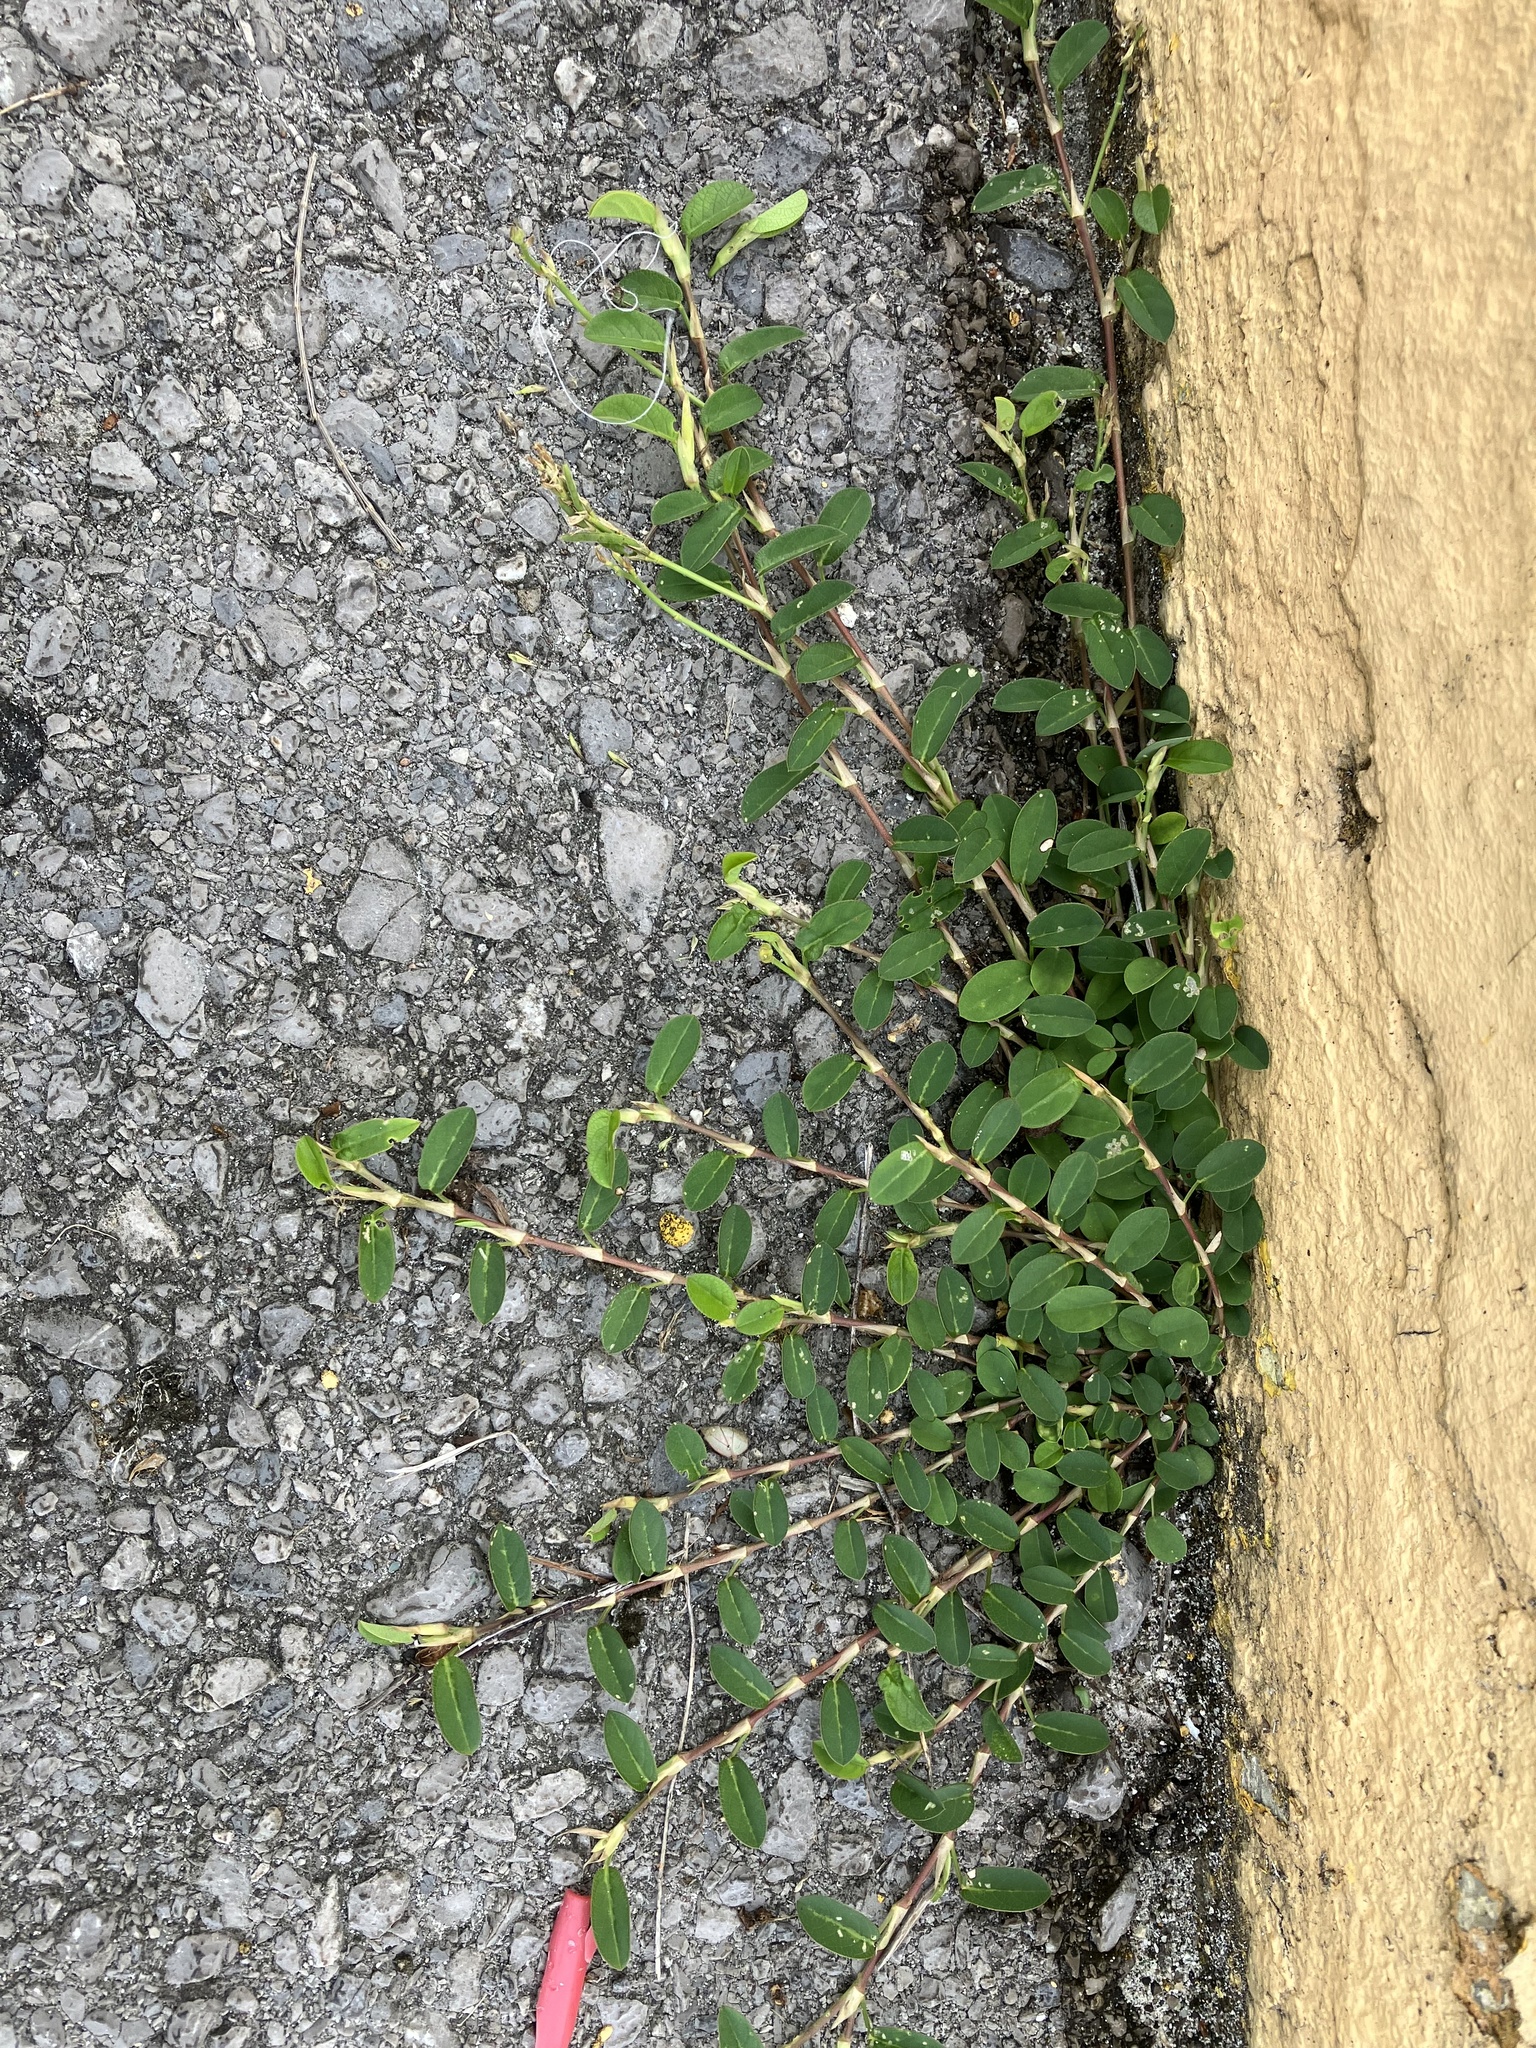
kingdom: Plantae
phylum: Tracheophyta
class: Magnoliopsida
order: Fabales
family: Fabaceae
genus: Alysicarpus
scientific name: Alysicarpus vaginalis
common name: White moneywort
